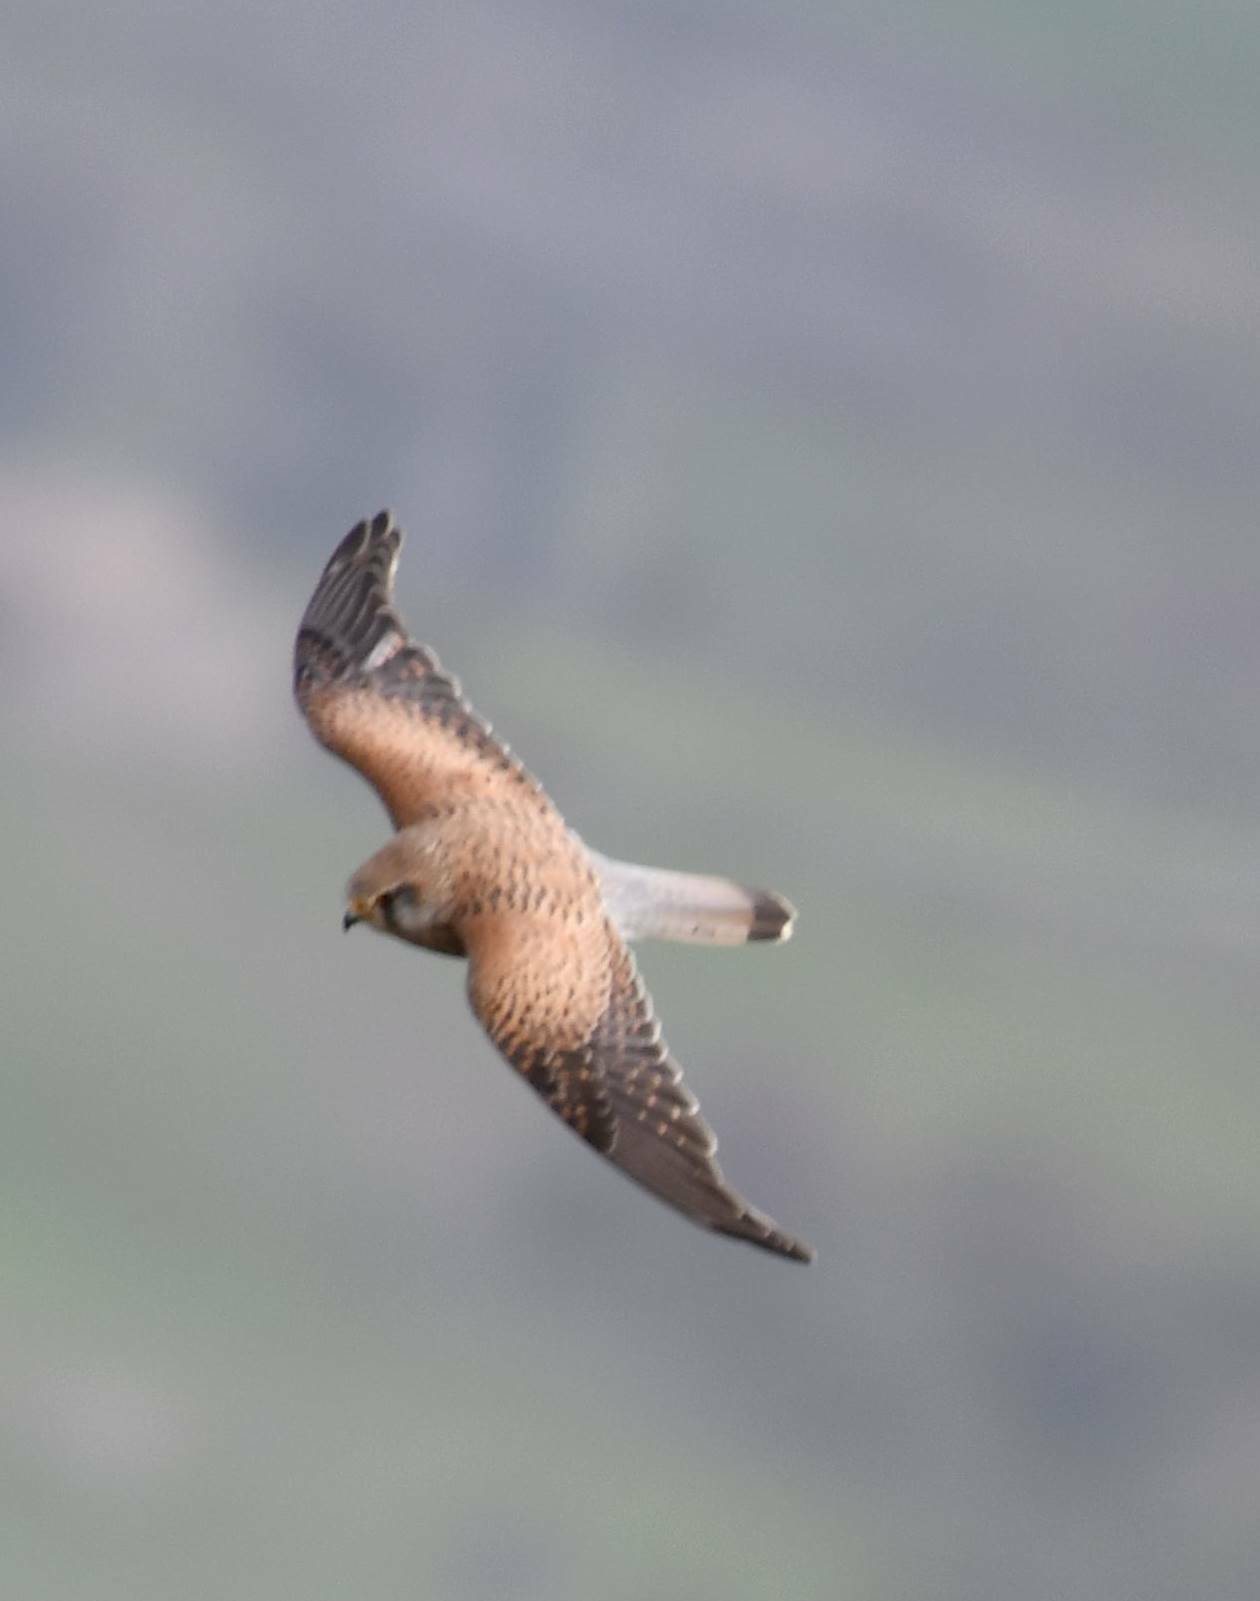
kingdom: Animalia
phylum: Chordata
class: Aves
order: Falconiformes
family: Falconidae
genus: Falco
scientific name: Falco tinnunculus
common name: Common kestrel
